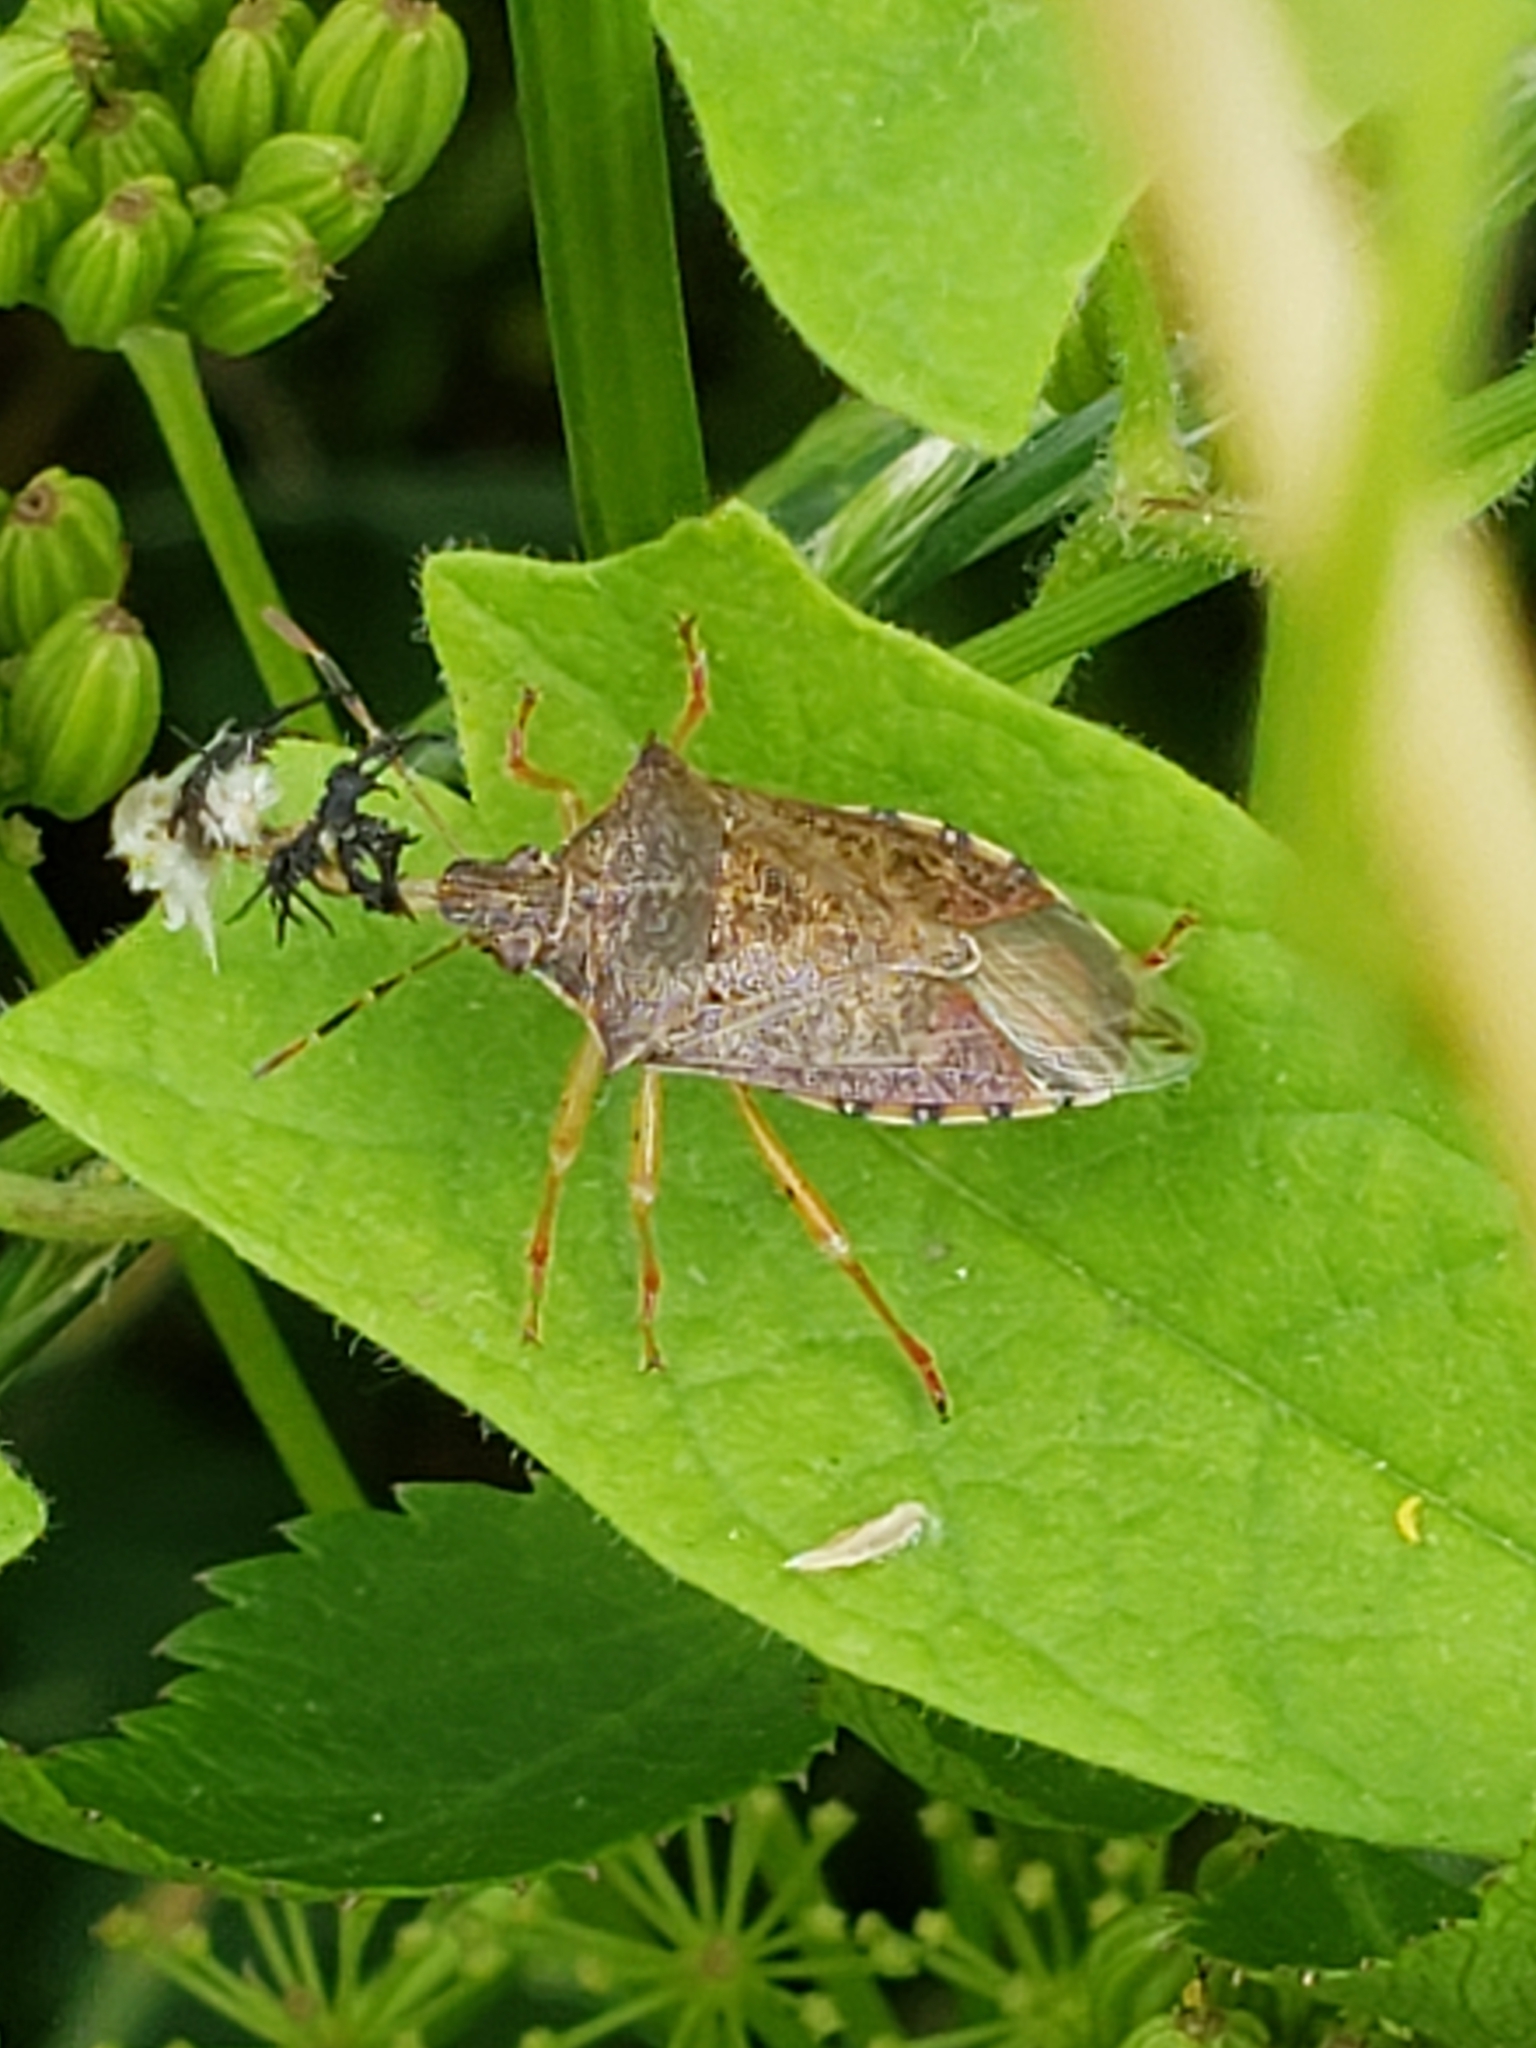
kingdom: Animalia
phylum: Arthropoda
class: Insecta
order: Hemiptera
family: Pentatomidae
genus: Podisus
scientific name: Podisus maculiventris
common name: Spined soldier bug
